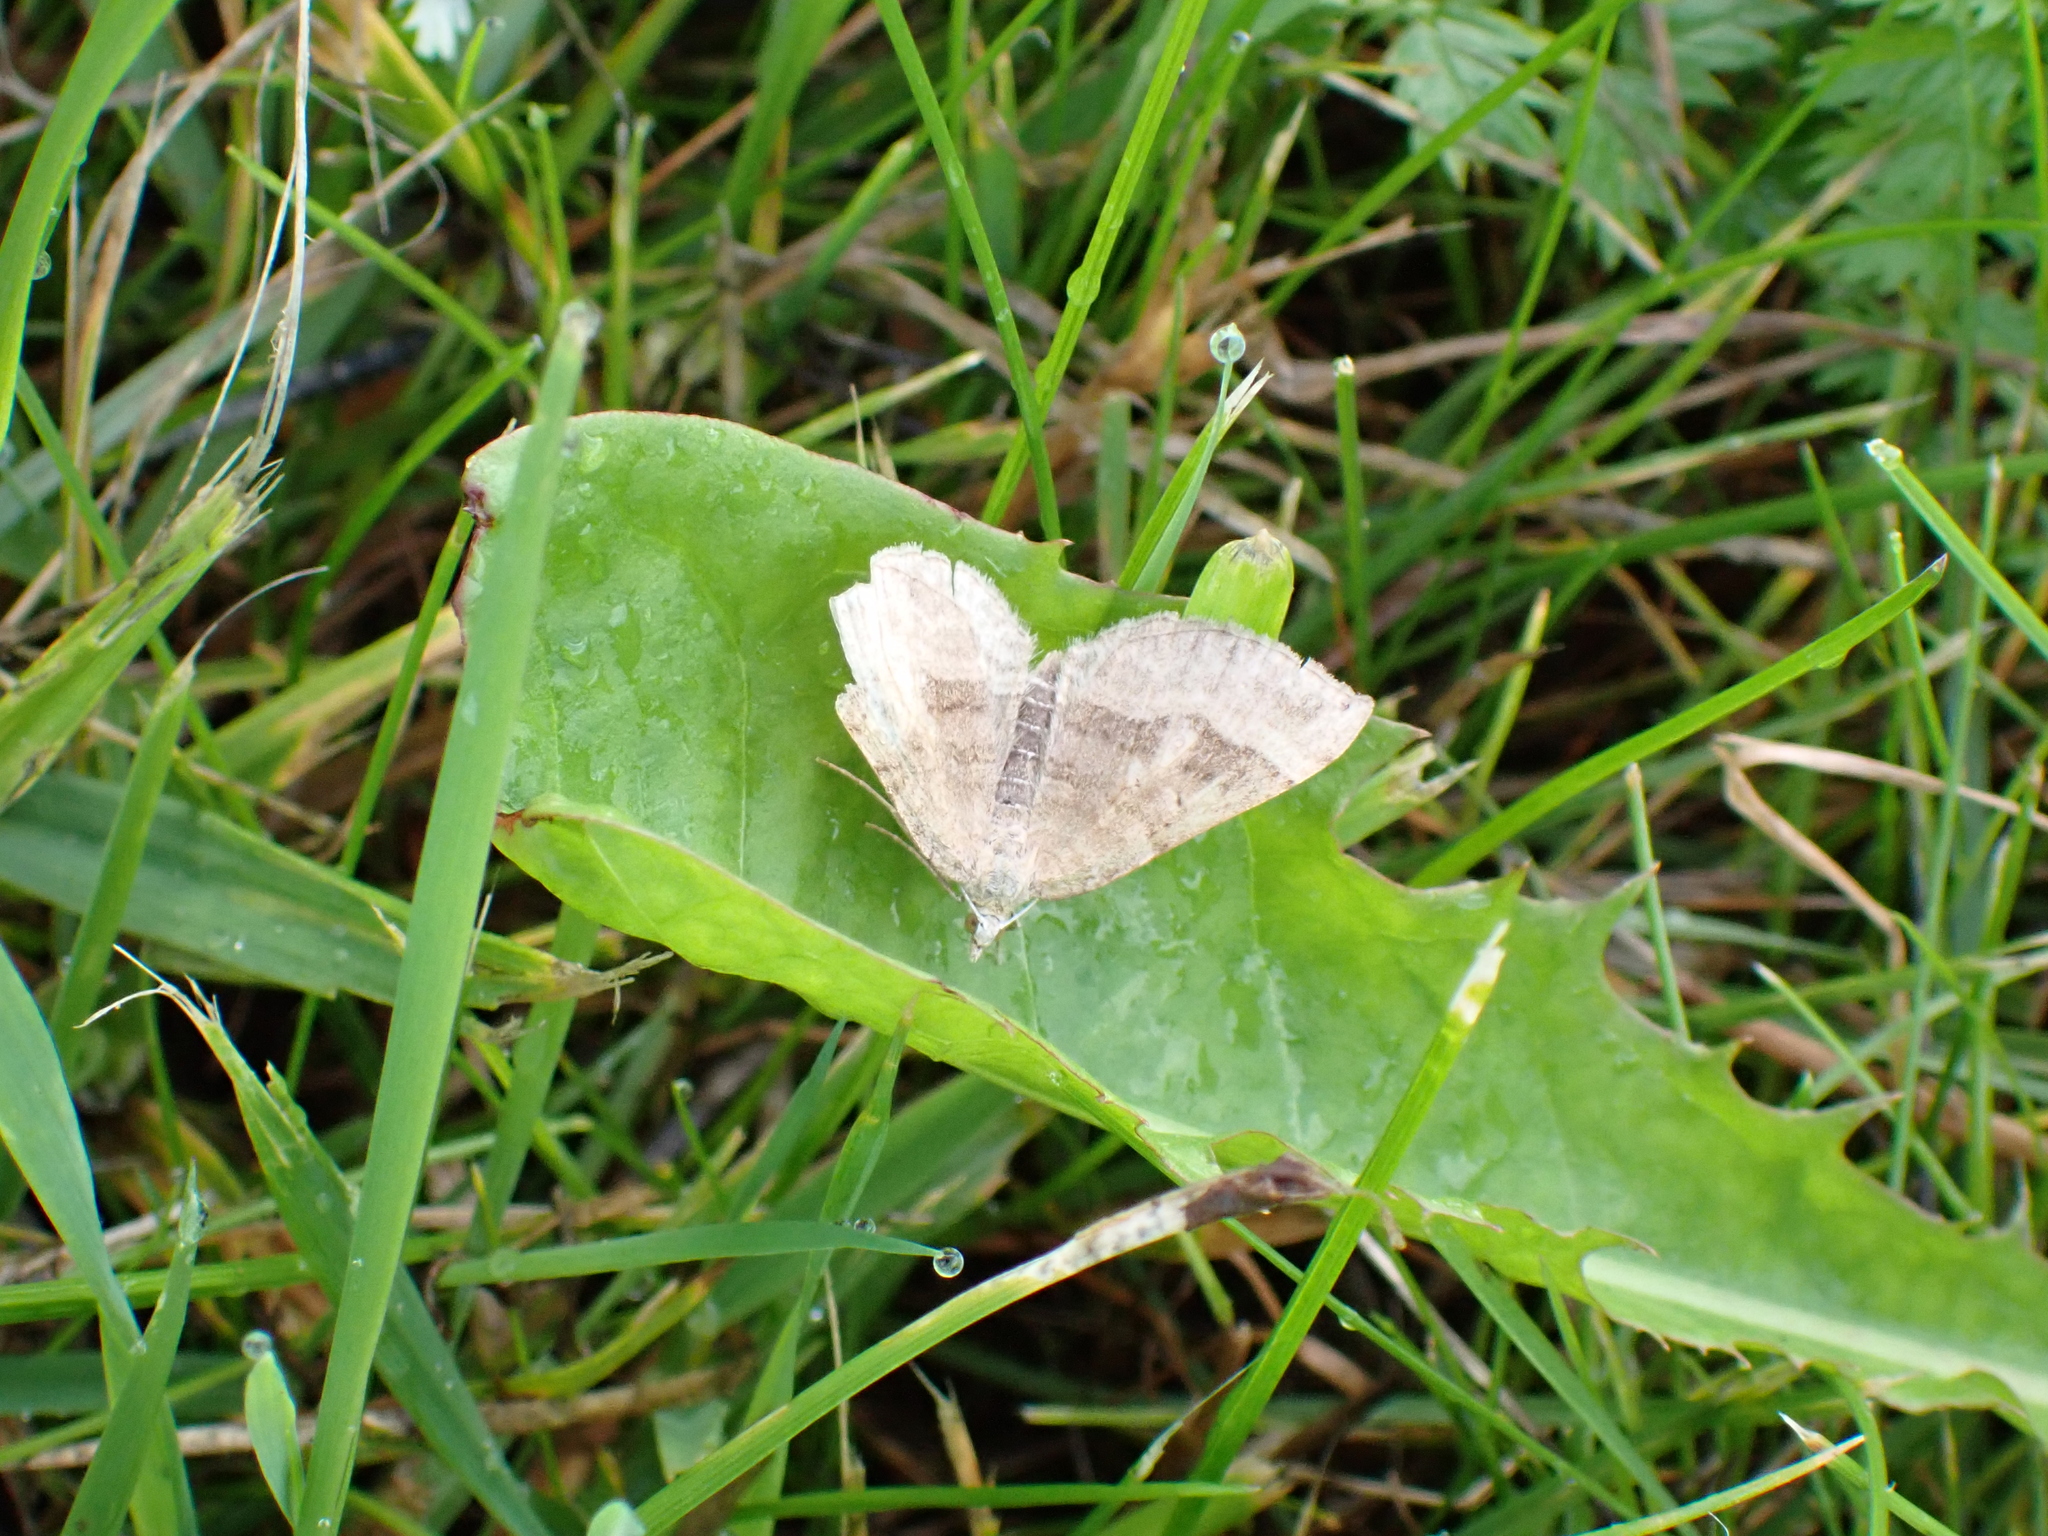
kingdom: Animalia
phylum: Arthropoda
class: Insecta
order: Lepidoptera
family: Geometridae
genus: Scotopteryx
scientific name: Scotopteryx chenopodiata
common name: Shaded broad-bar
